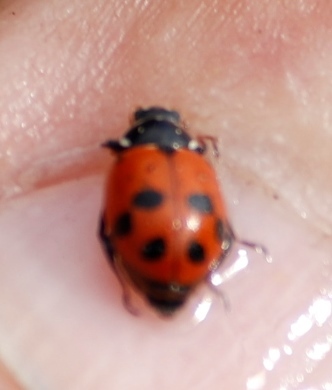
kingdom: Animalia
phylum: Arthropoda
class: Insecta
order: Coleoptera
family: Coccinellidae
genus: Hippodamia
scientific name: Hippodamia variegata
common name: Ladybird beetle
